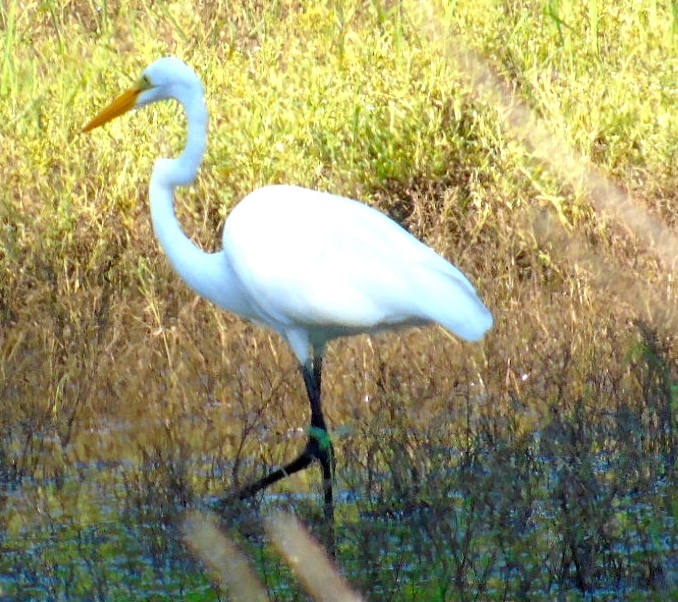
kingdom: Animalia
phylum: Chordata
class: Aves
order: Pelecaniformes
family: Ardeidae
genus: Ardea
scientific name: Ardea alba
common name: Great egret
